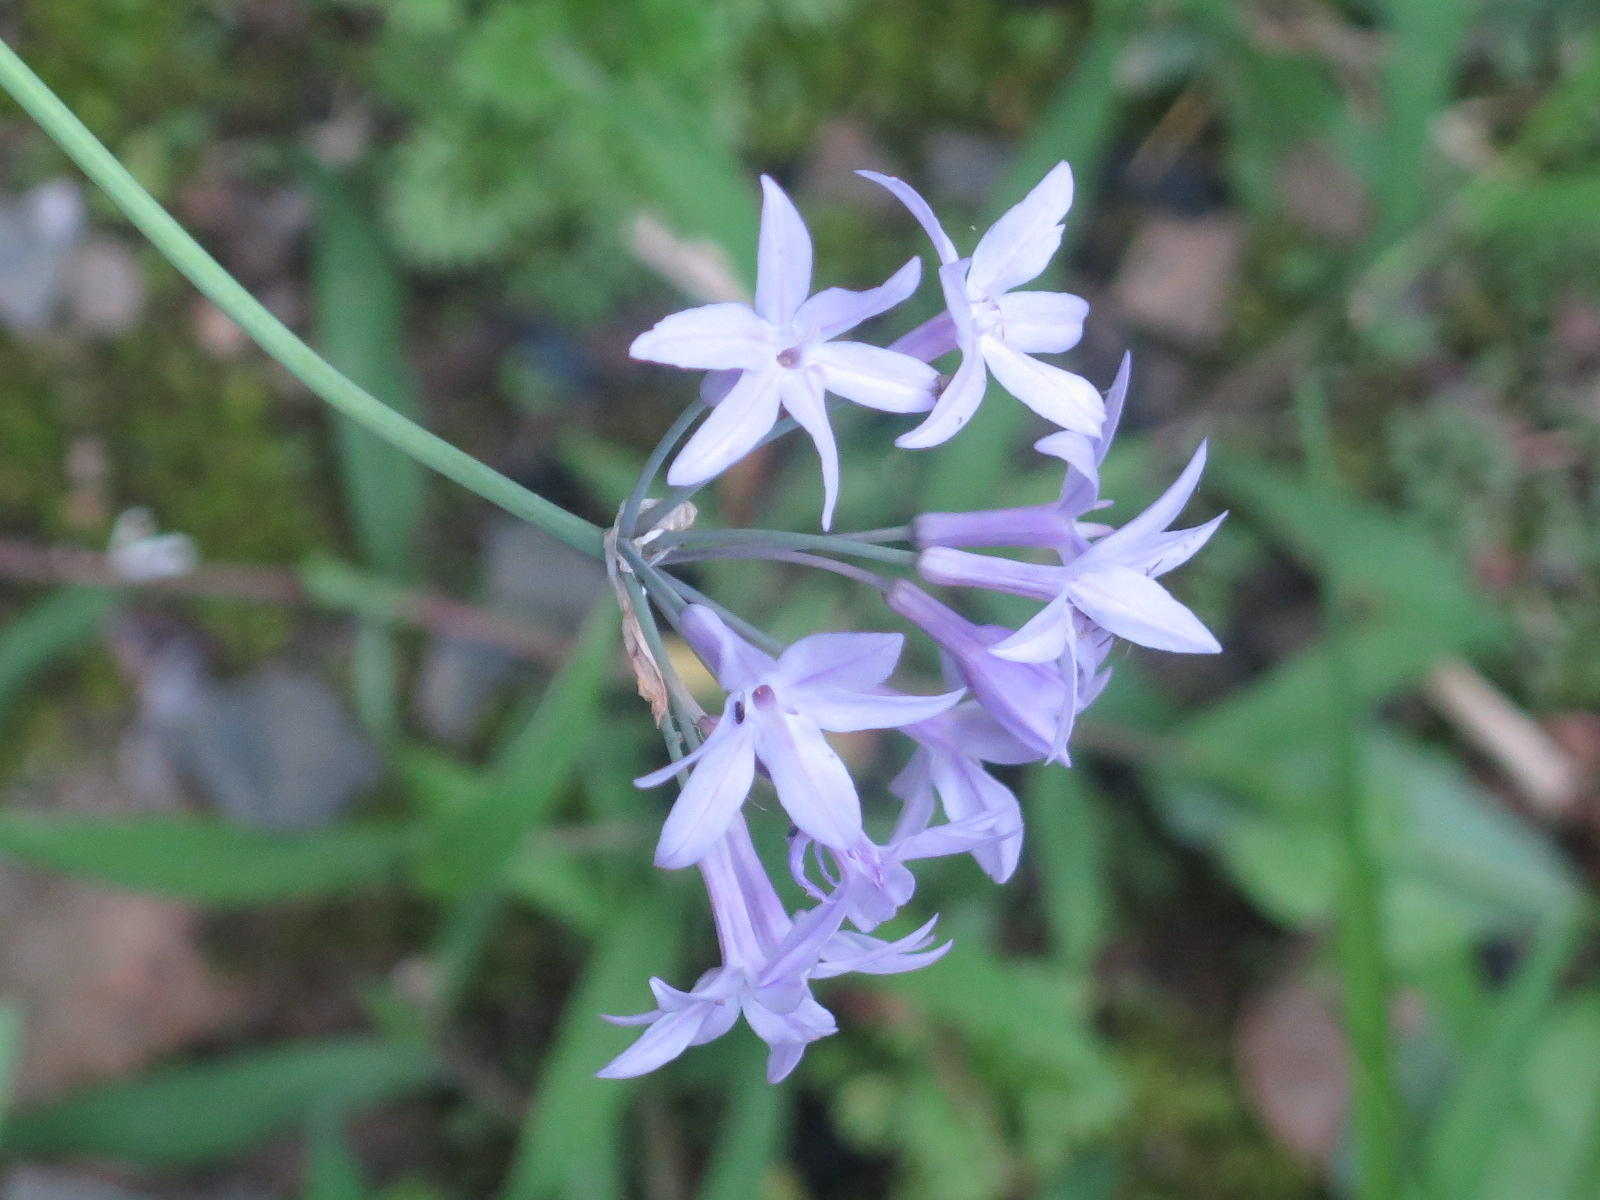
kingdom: Plantae
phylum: Tracheophyta
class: Liliopsida
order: Asparagales
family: Amaryllidaceae
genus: Tulbaghia
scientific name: Tulbaghia violacea
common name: Society garlic
